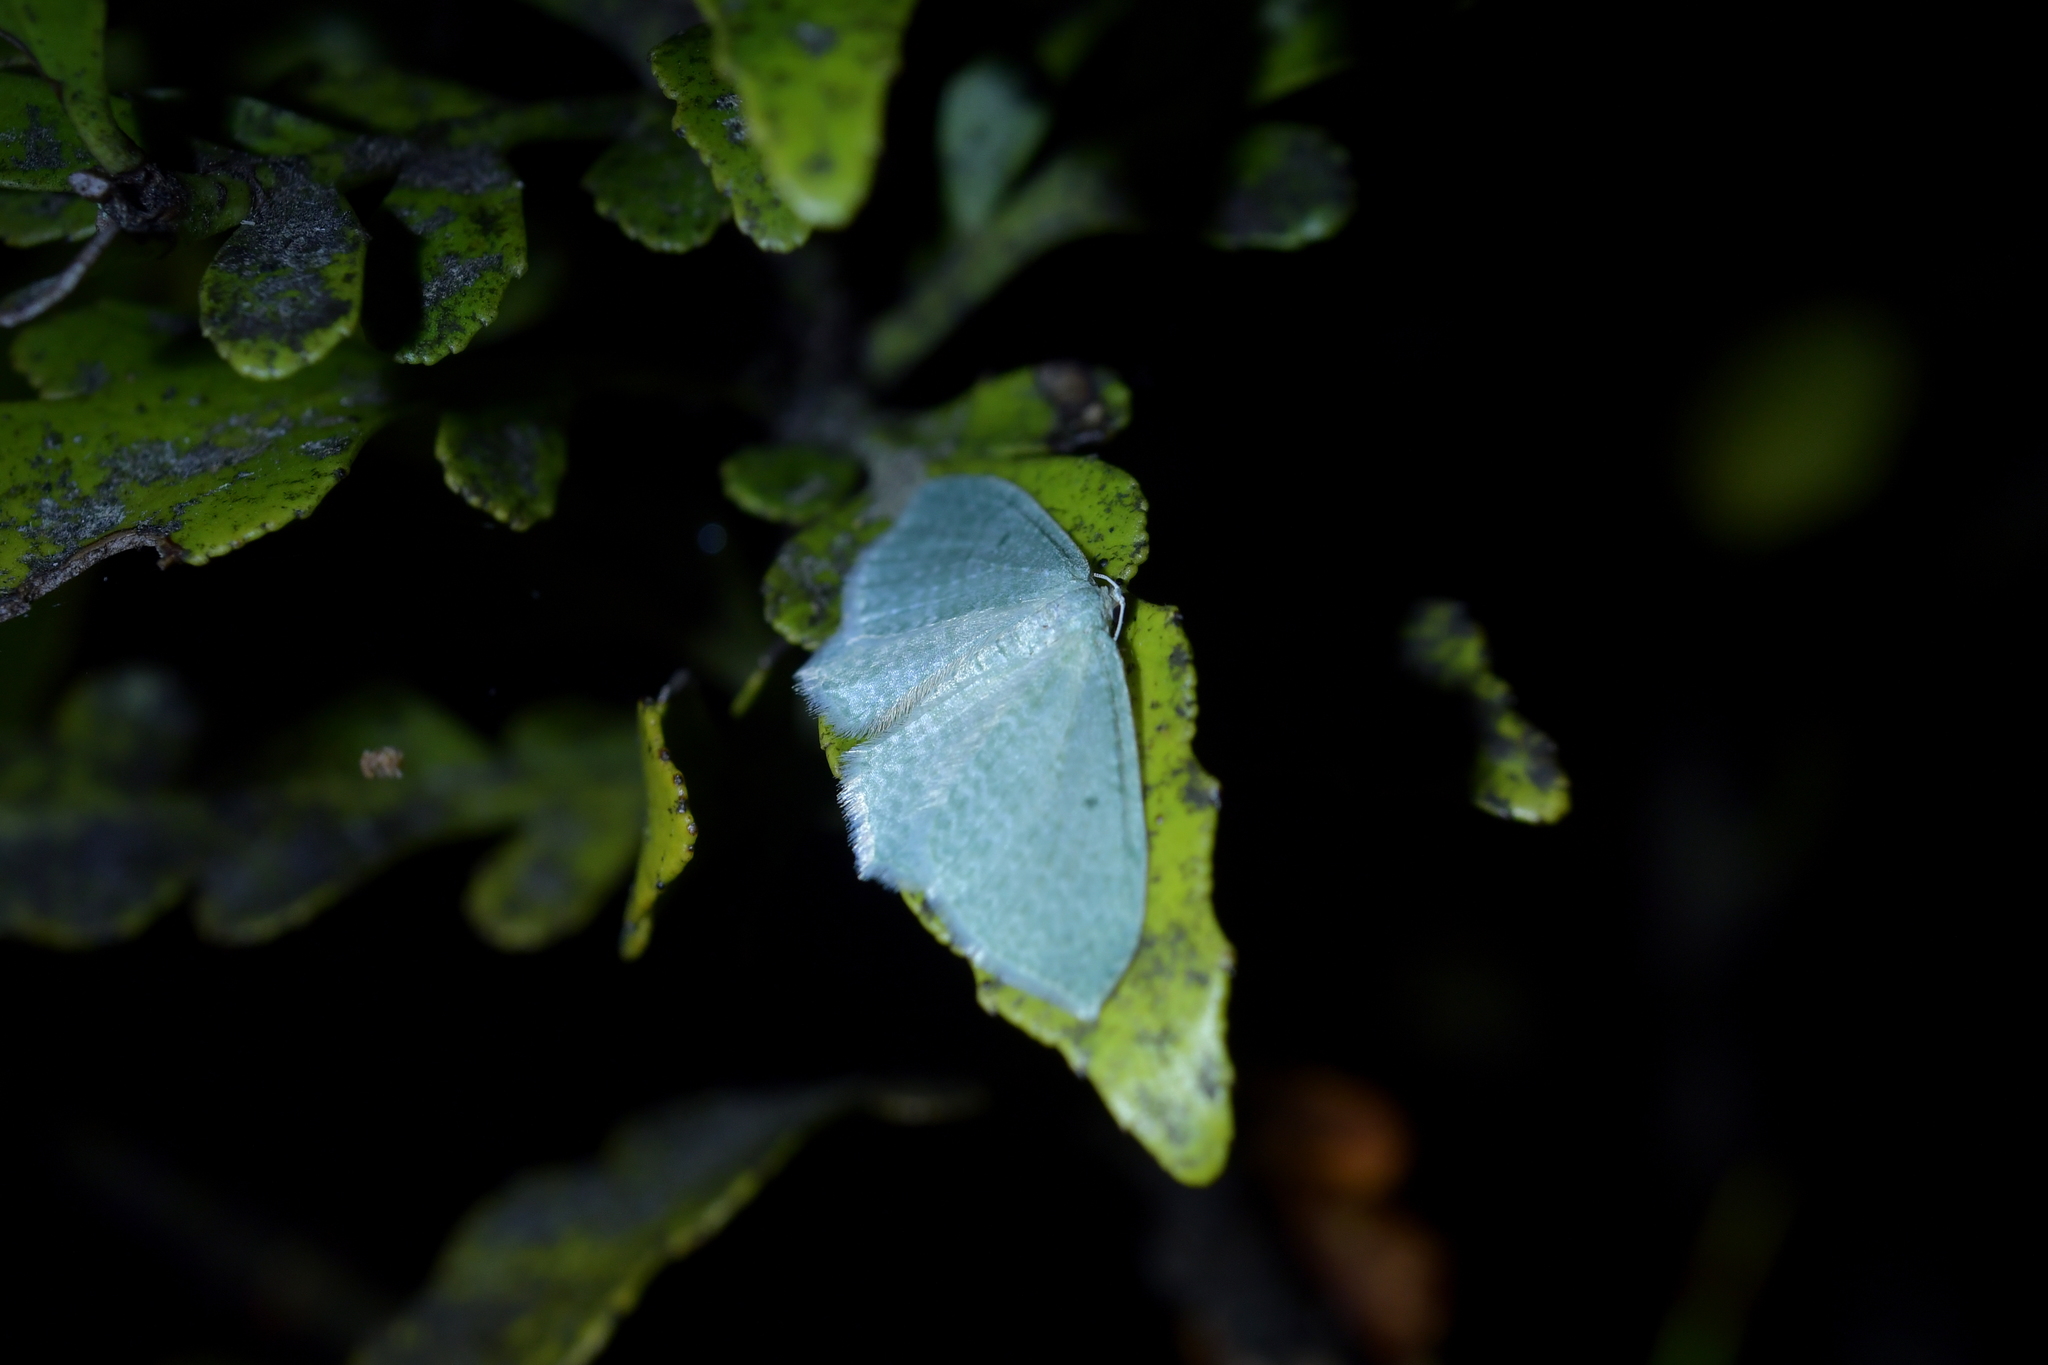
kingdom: Animalia
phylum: Arthropoda
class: Insecta
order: Lepidoptera
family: Geometridae
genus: Poecilasthena
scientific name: Poecilasthena pulchraria
